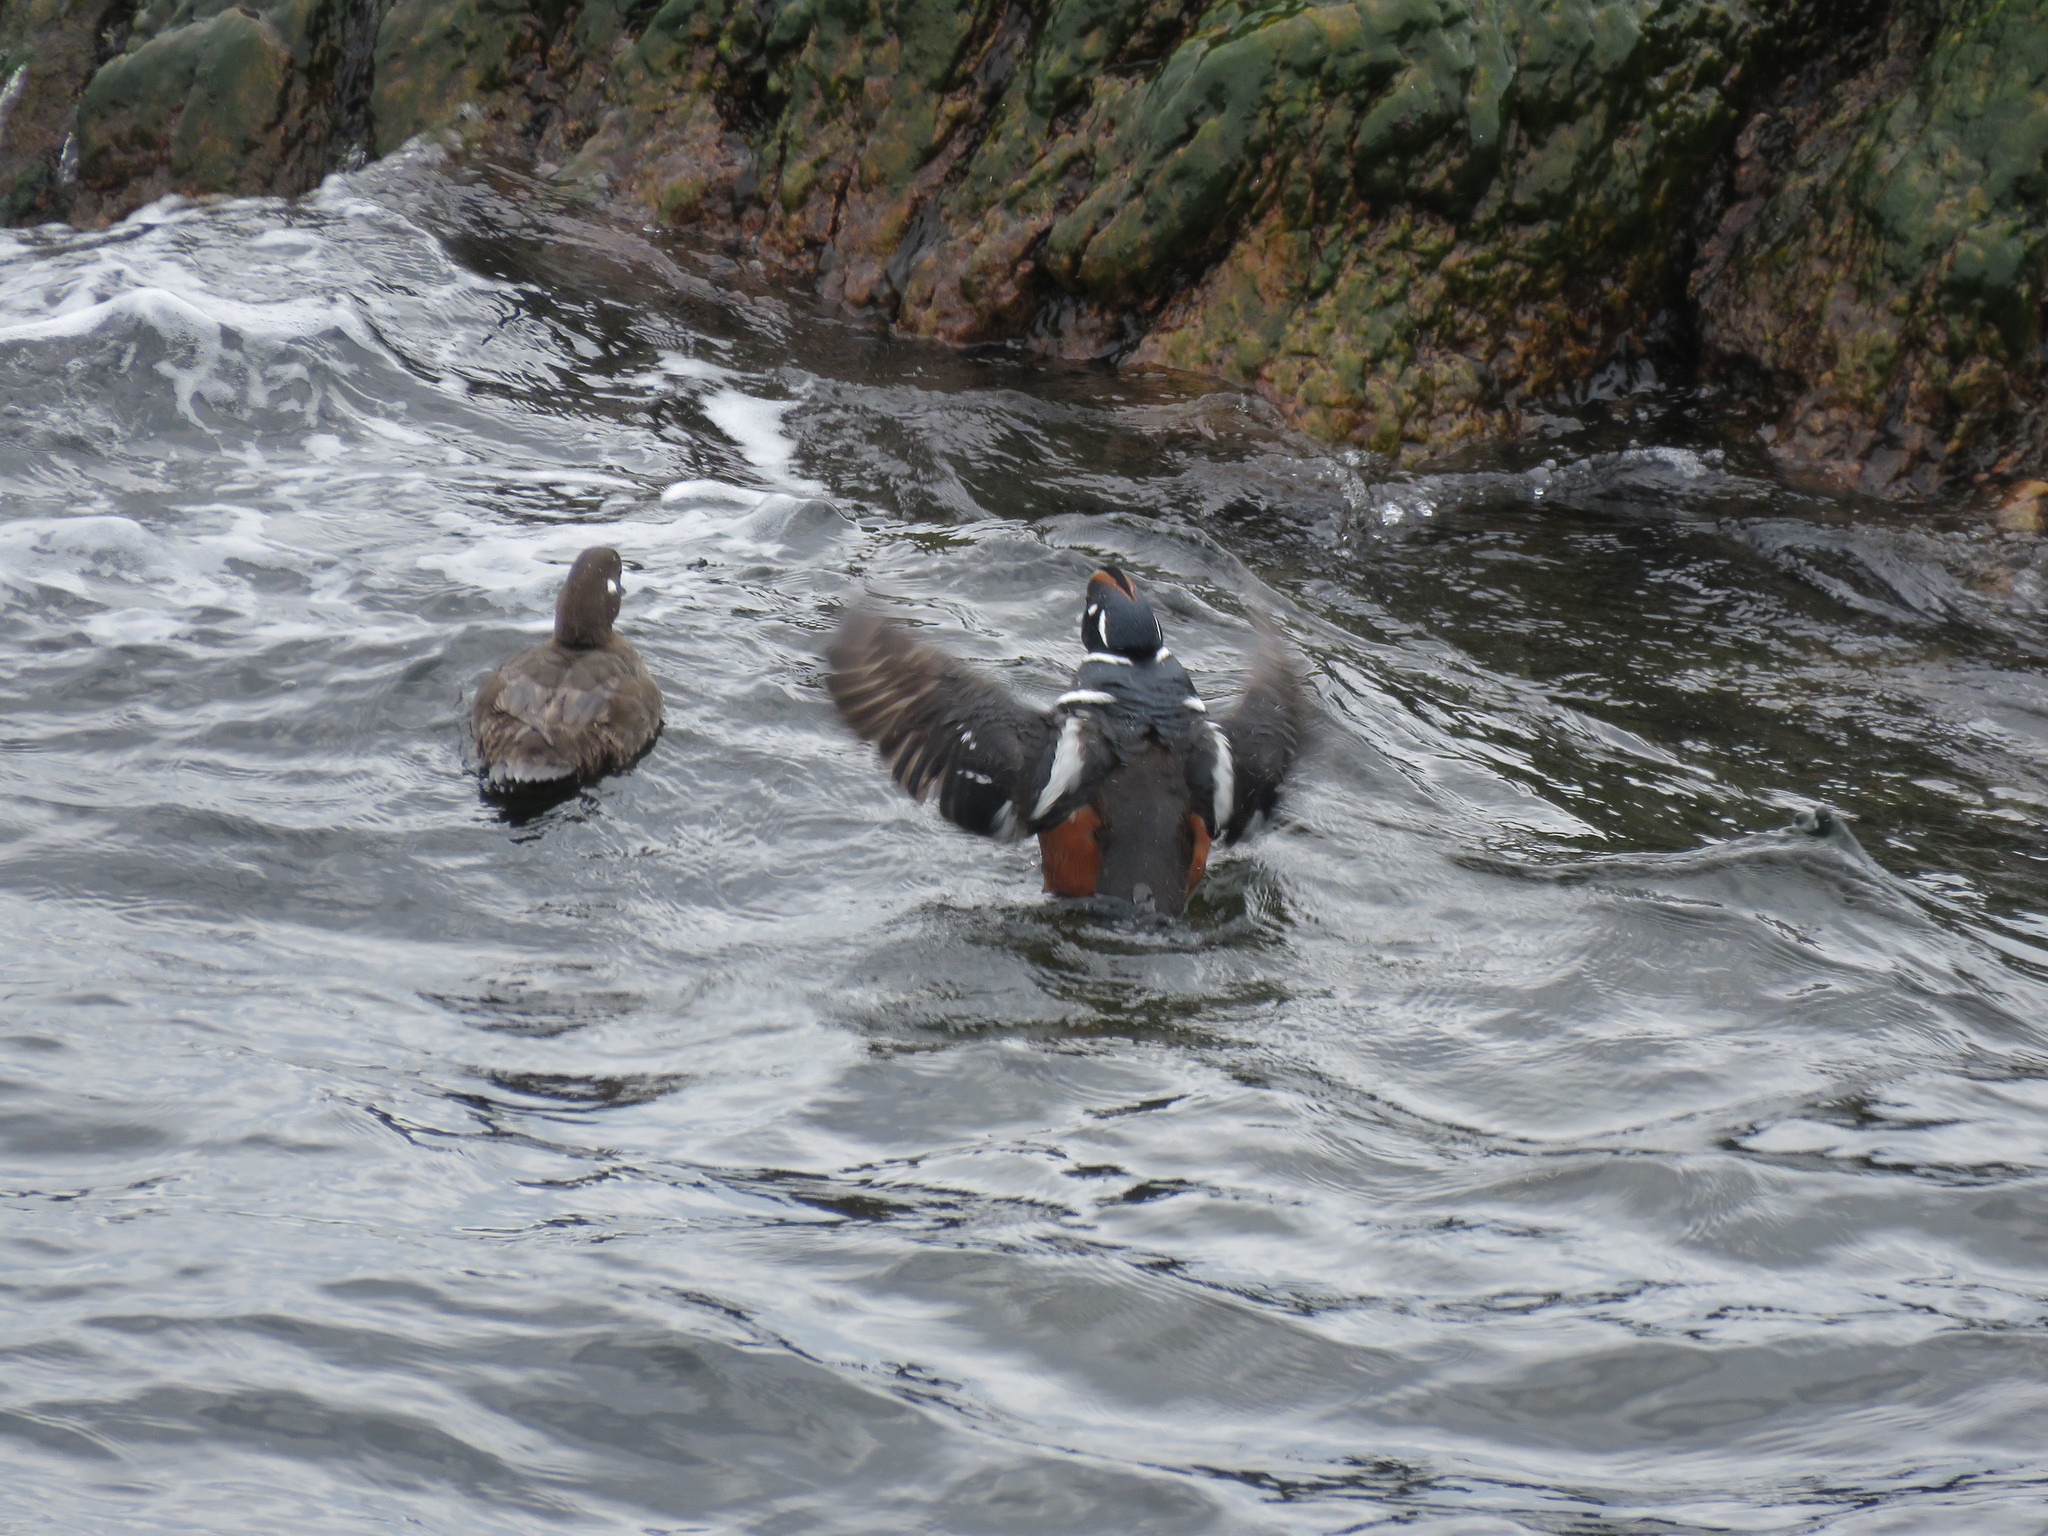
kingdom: Animalia
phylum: Chordata
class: Aves
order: Anseriformes
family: Anatidae
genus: Histrionicus
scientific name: Histrionicus histrionicus
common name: Harlequin duck
